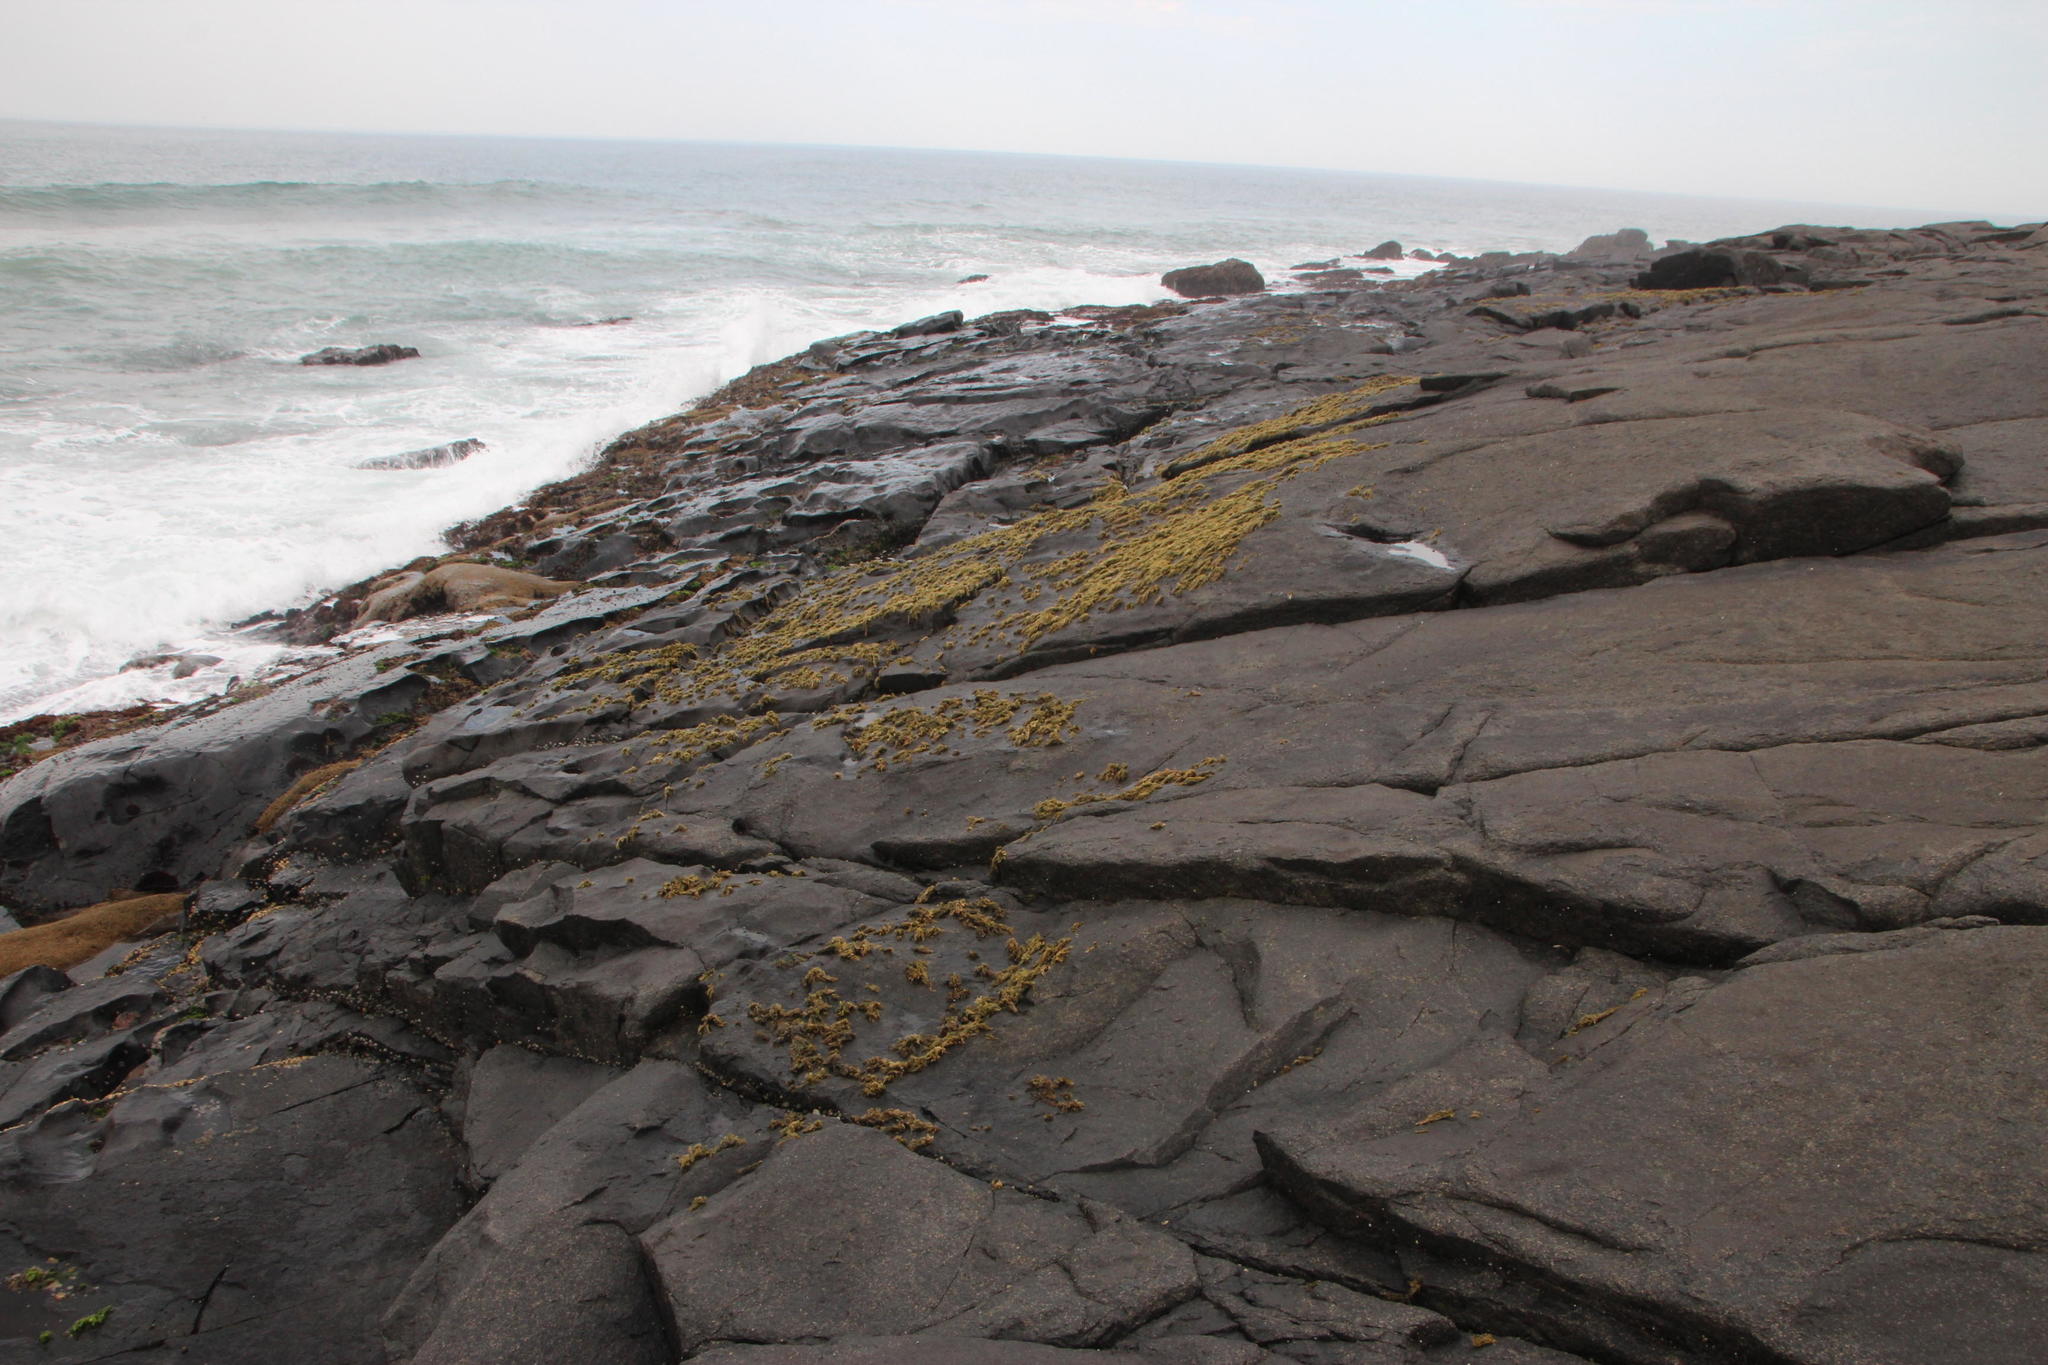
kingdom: Plantae
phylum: Rhodophyta
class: Bangiophyceae
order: Bangiales
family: Bangiaceae
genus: Porphyra
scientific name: Porphyra capensis
